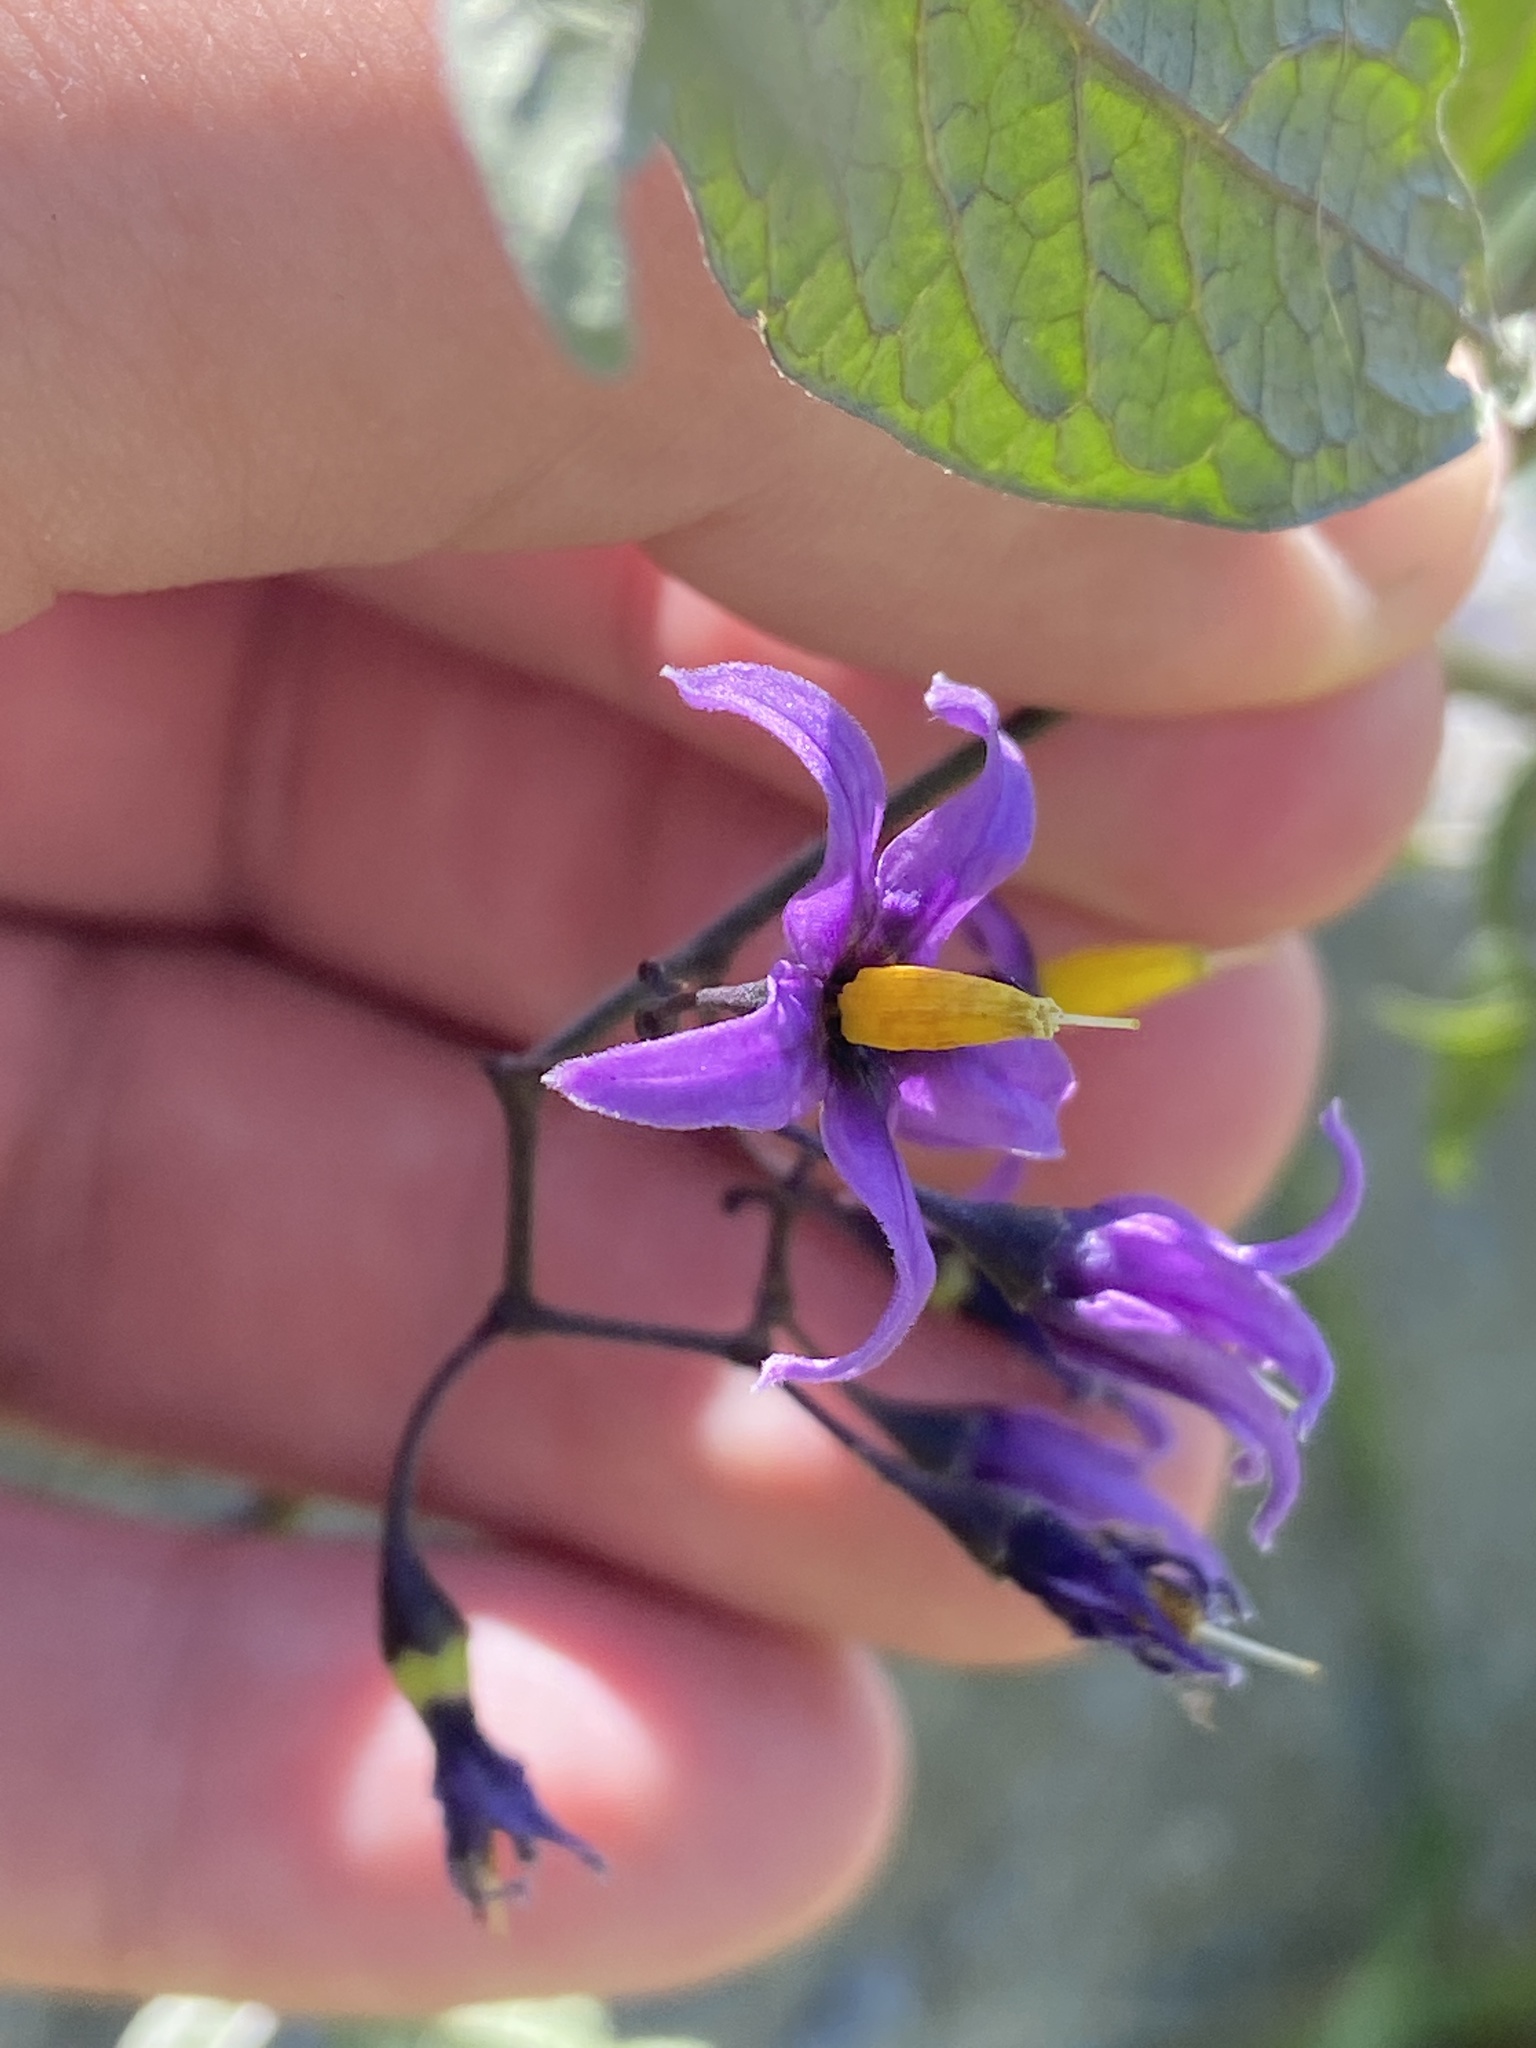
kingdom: Plantae
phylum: Tracheophyta
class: Magnoliopsida
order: Solanales
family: Solanaceae
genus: Solanum
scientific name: Solanum dulcamara
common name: Climbing nightshade
